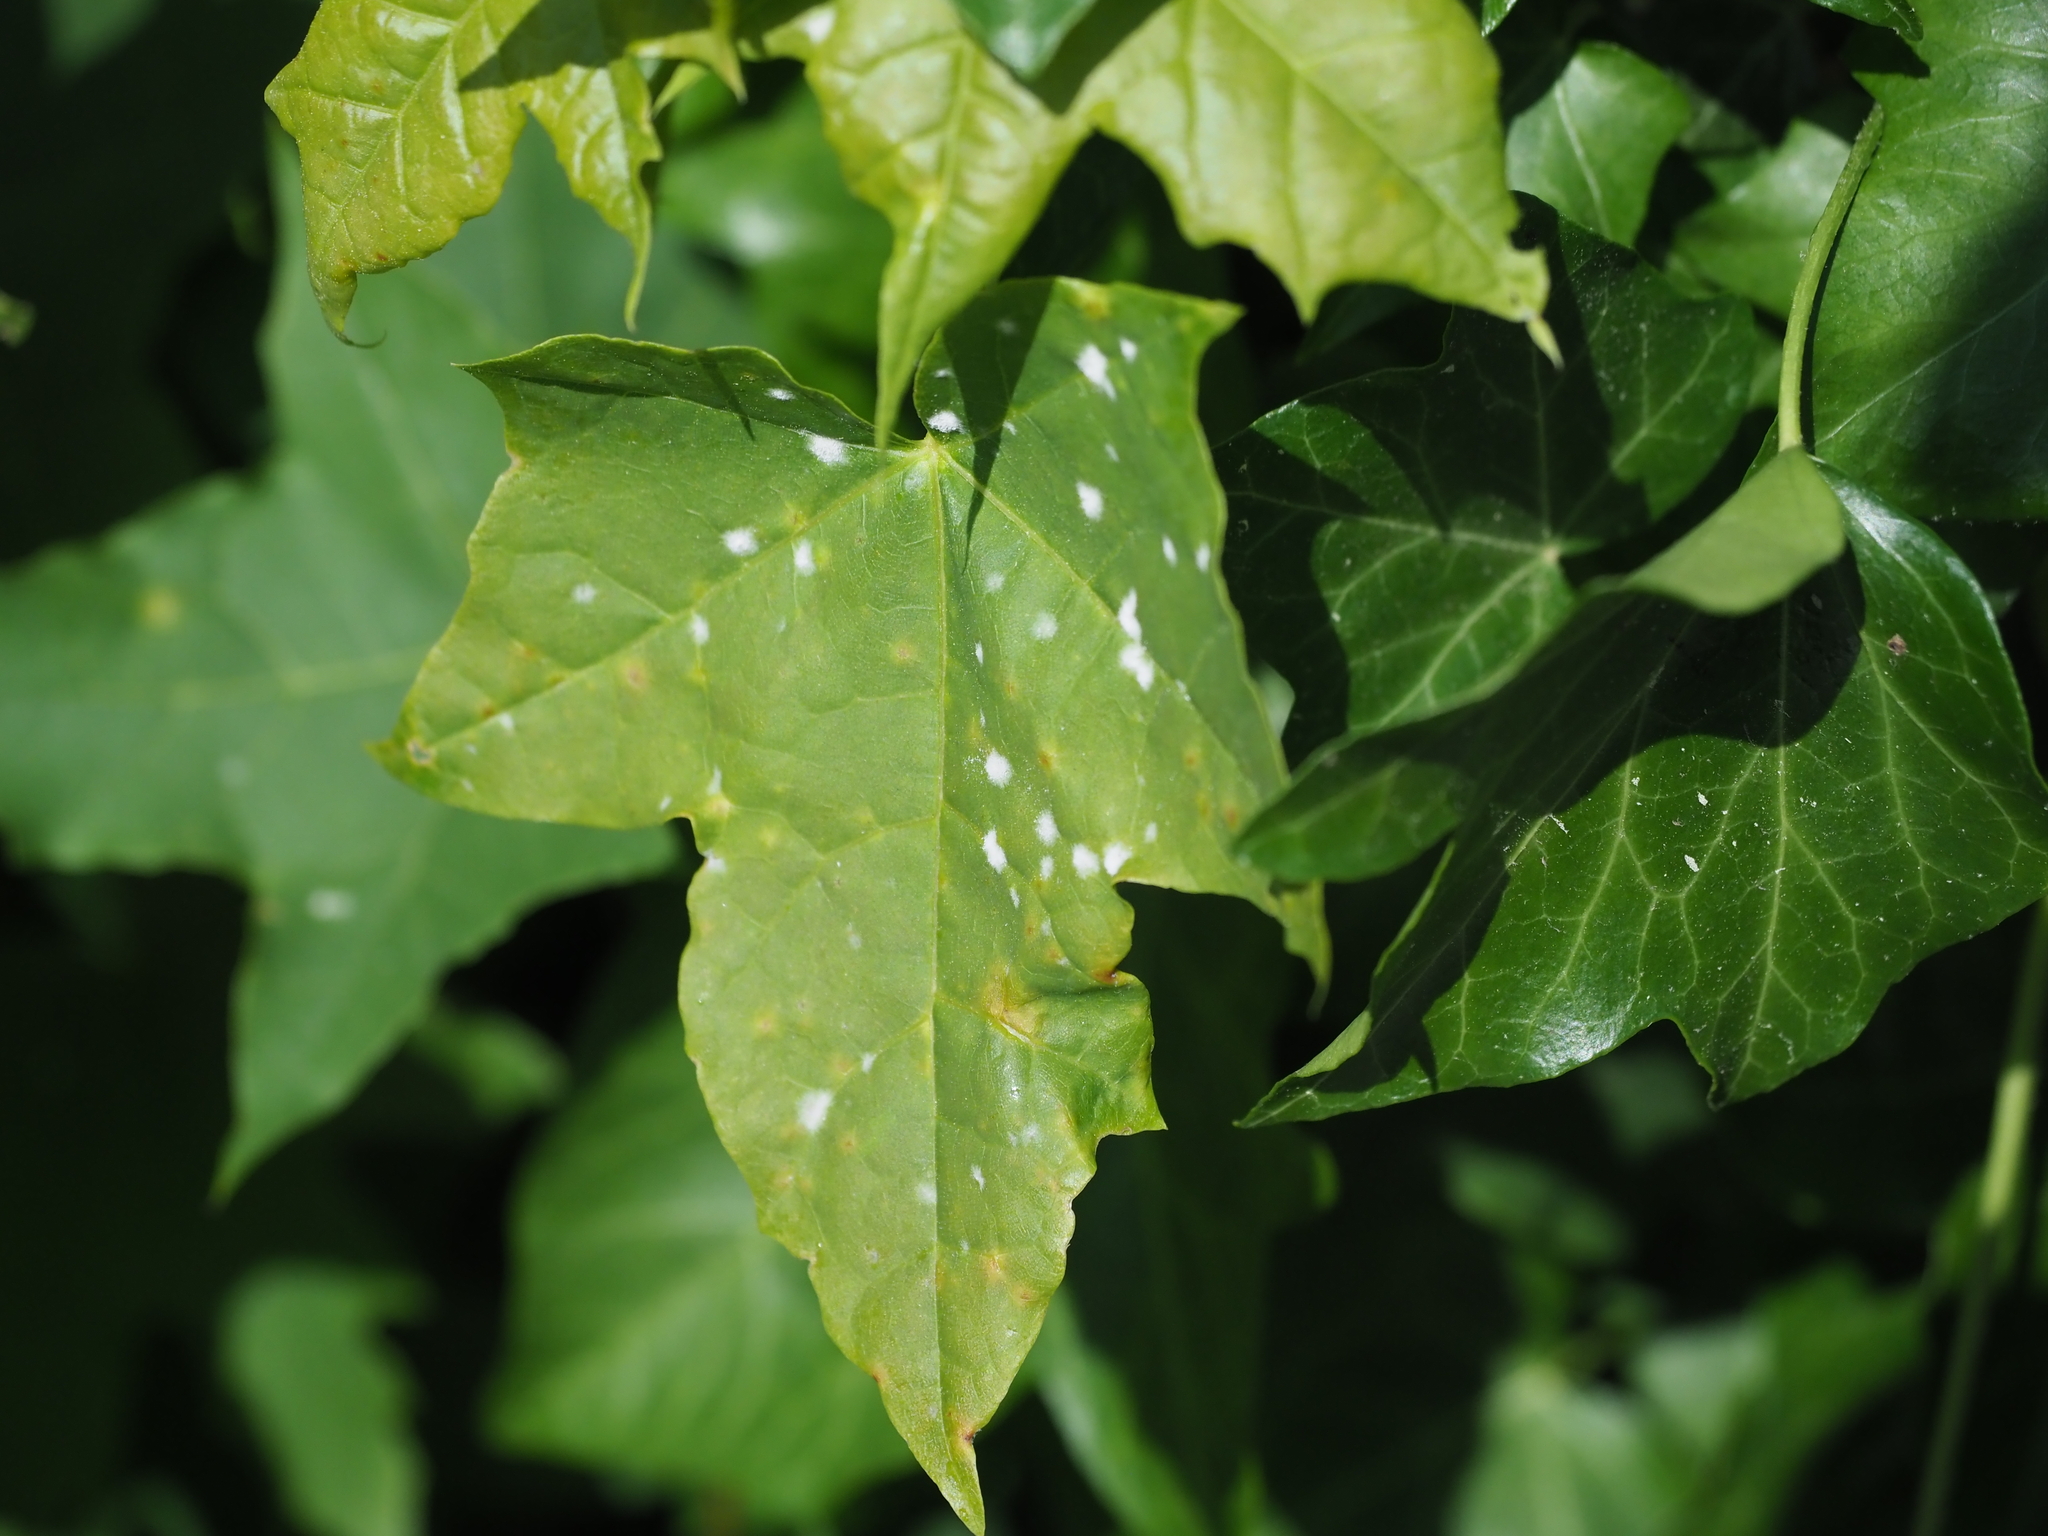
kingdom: Fungi
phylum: Ascomycota
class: Leotiomycetes
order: Helotiales
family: Erysiphaceae
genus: Sawadaea
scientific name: Sawadaea tulasnei
